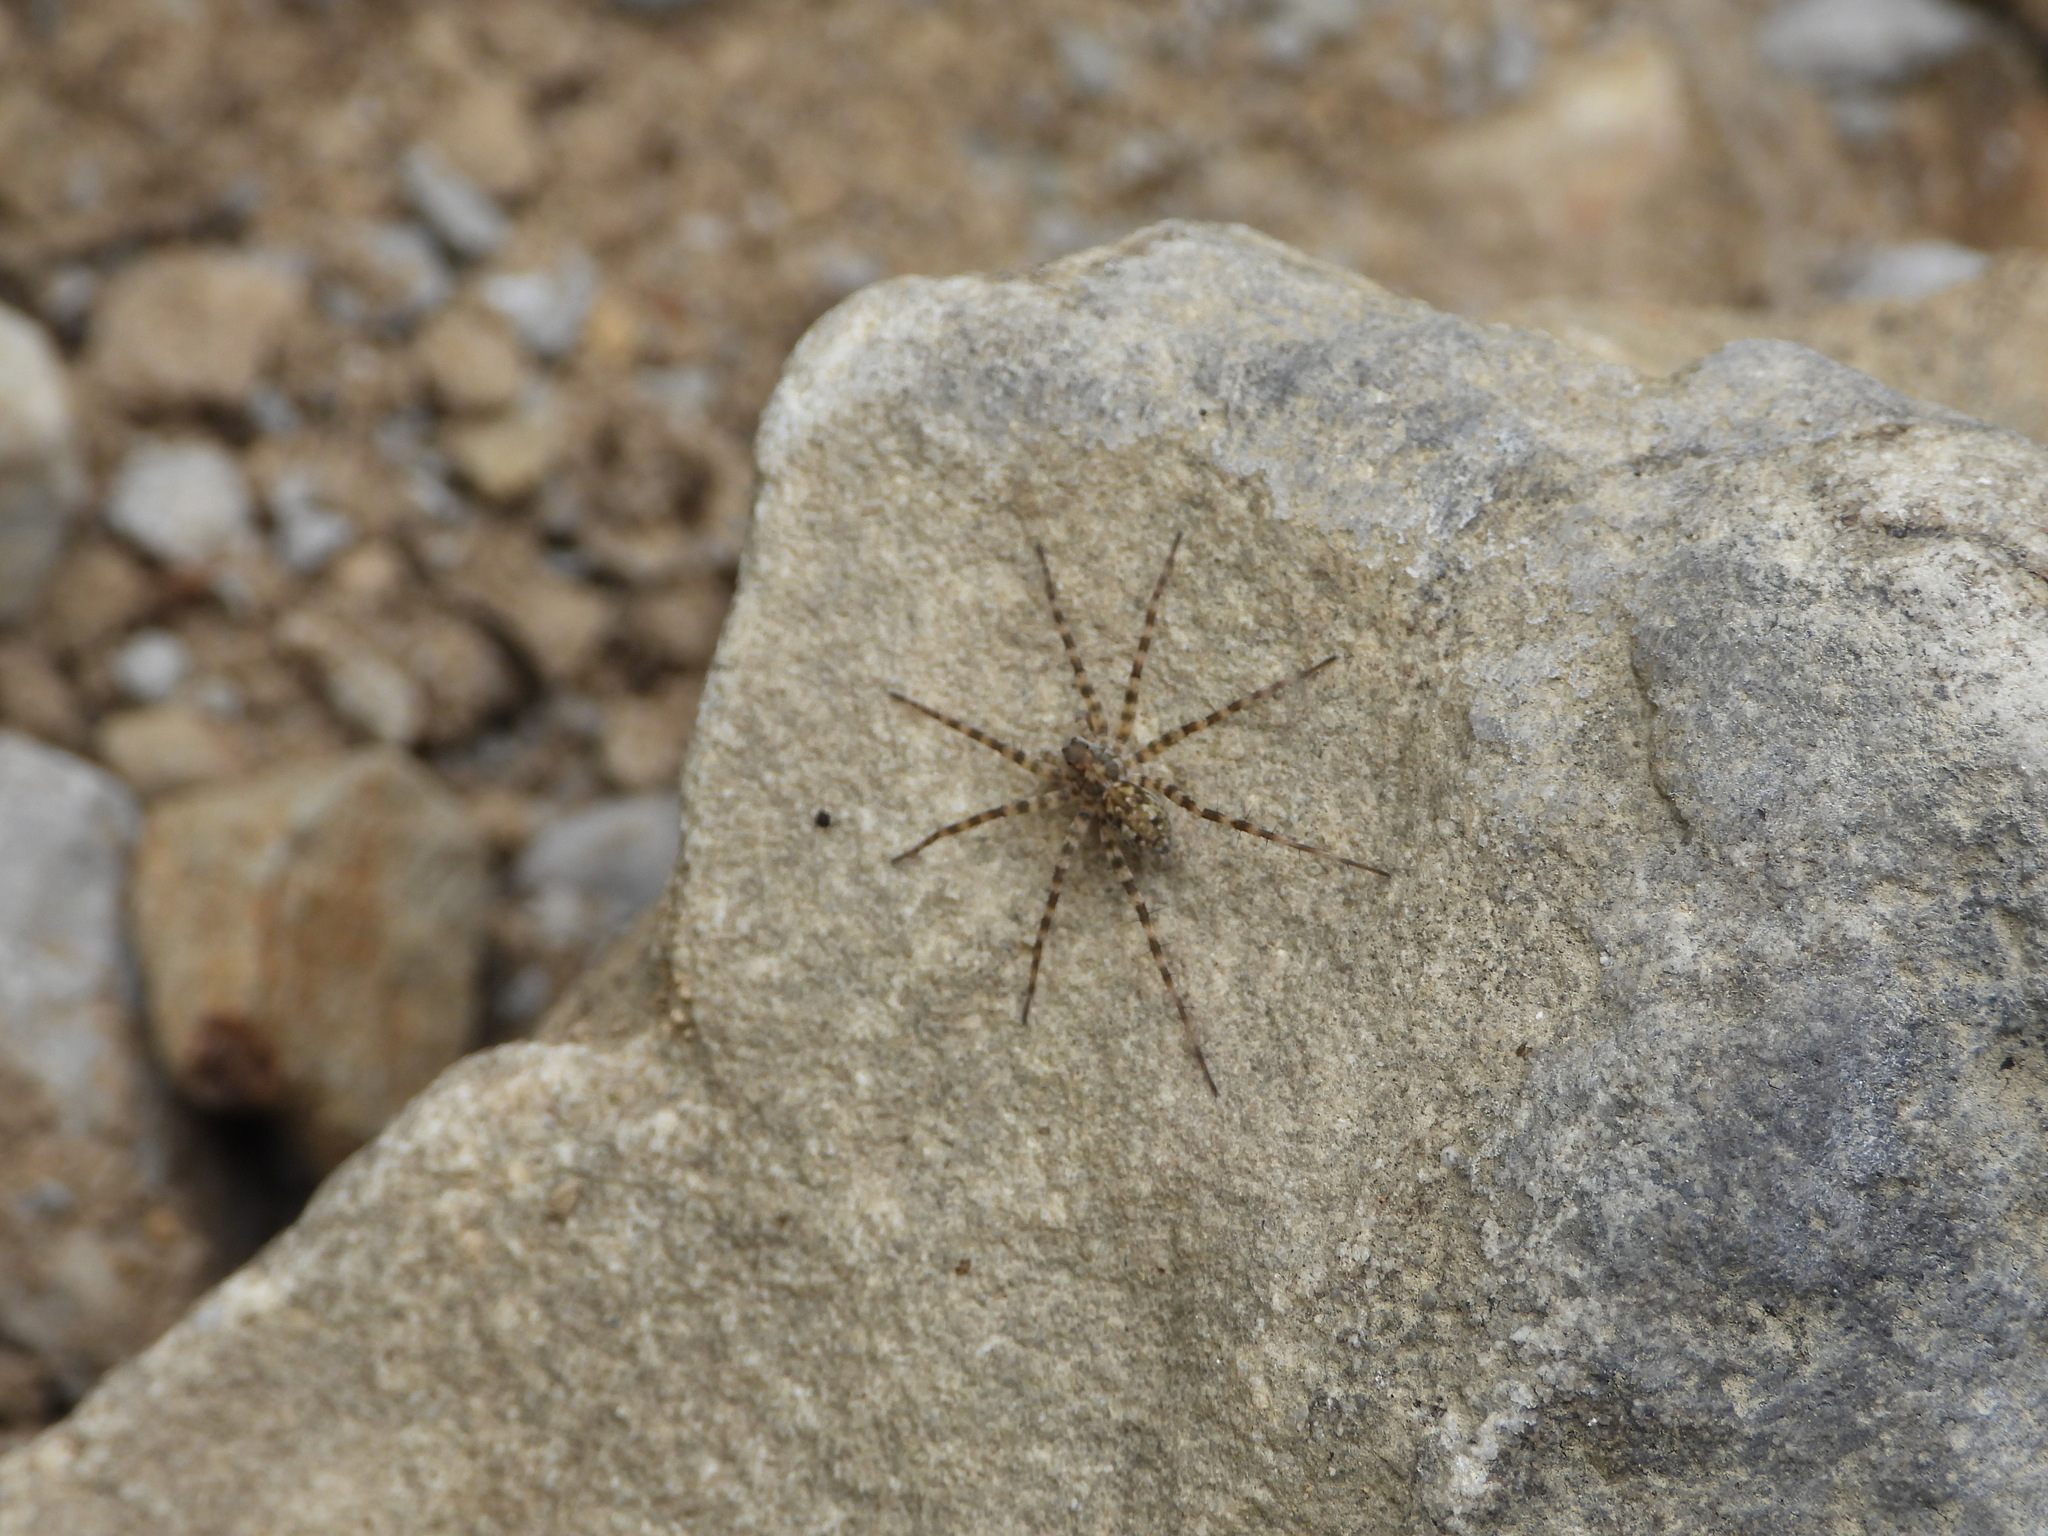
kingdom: Animalia
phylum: Arthropoda
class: Arachnida
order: Araneae
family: Lycosidae
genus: Pardosa
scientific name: Pardosa lapidicina
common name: Stone spider
